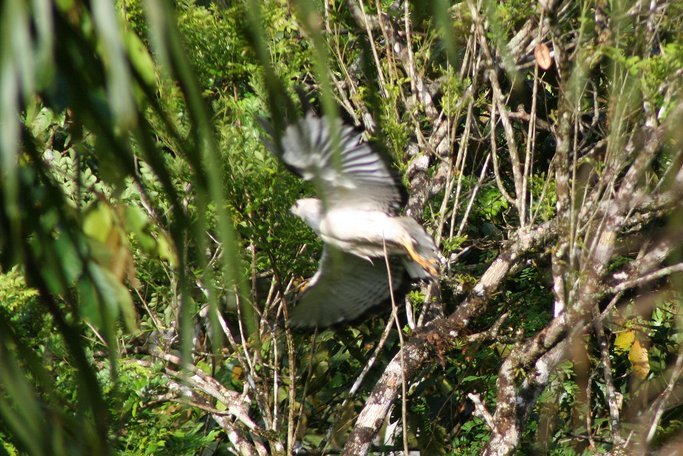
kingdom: Animalia
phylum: Chordata
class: Aves
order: Accipitriformes
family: Accipitridae
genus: Leucopternis
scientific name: Leucopternis lacernulatus
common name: White-necked hawk
